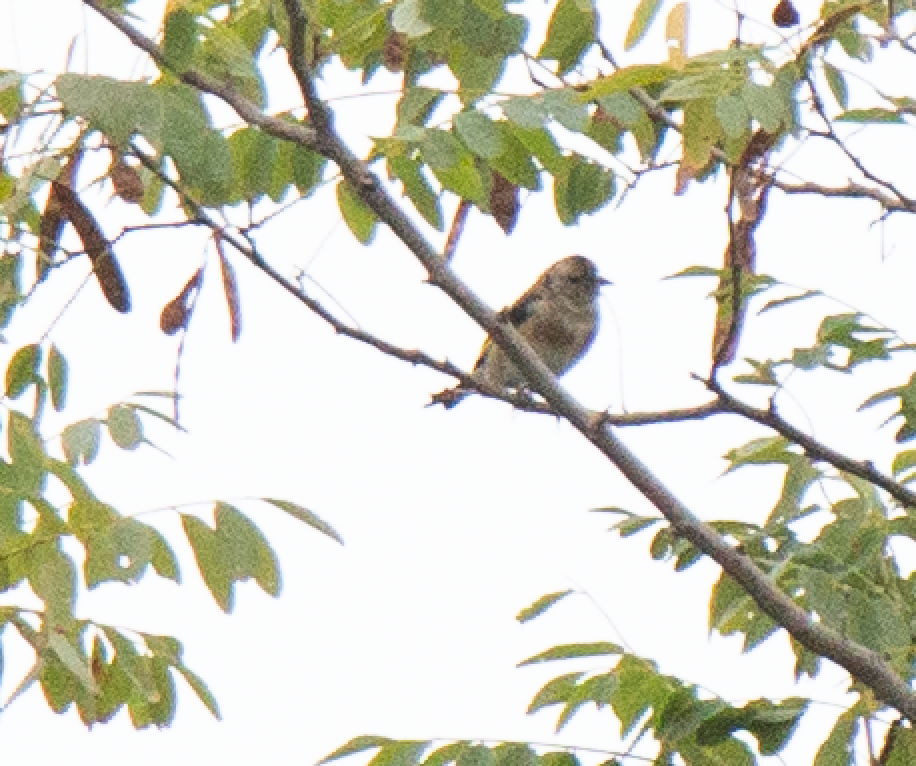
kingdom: Animalia
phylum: Chordata
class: Aves
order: Passeriformes
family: Fringillidae
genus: Carduelis
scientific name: Carduelis carduelis
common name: European goldfinch
